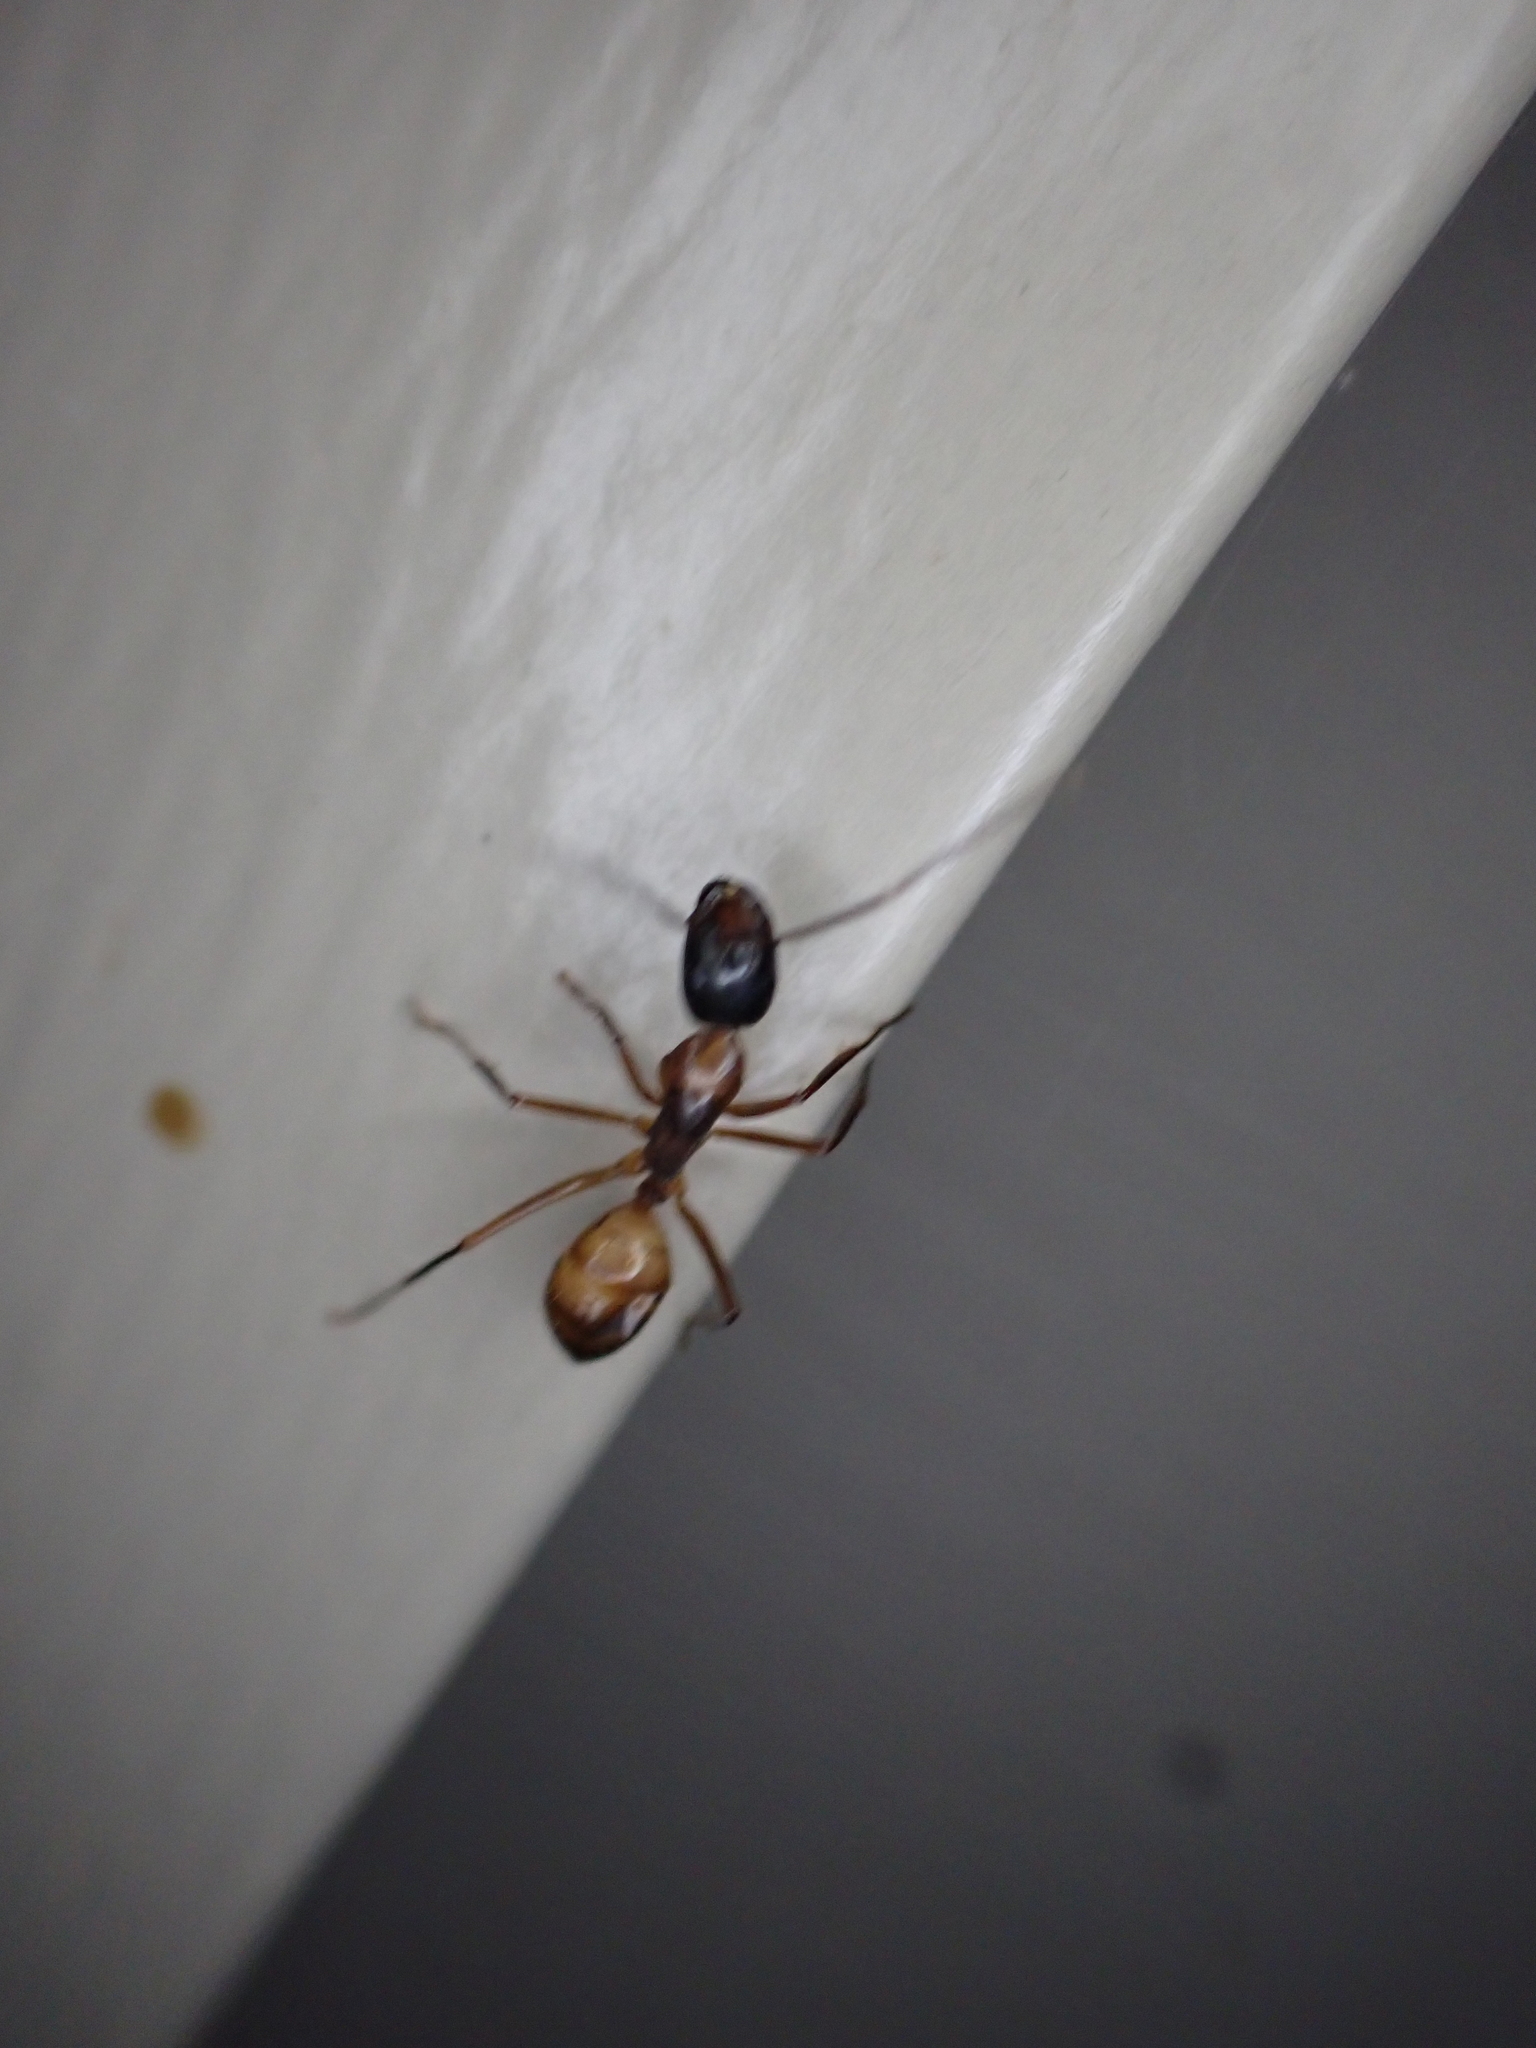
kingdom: Animalia
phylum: Arthropoda
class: Insecta
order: Hymenoptera
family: Formicidae
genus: Camponotus
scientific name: Camponotus americanus
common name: American carpenter ant
